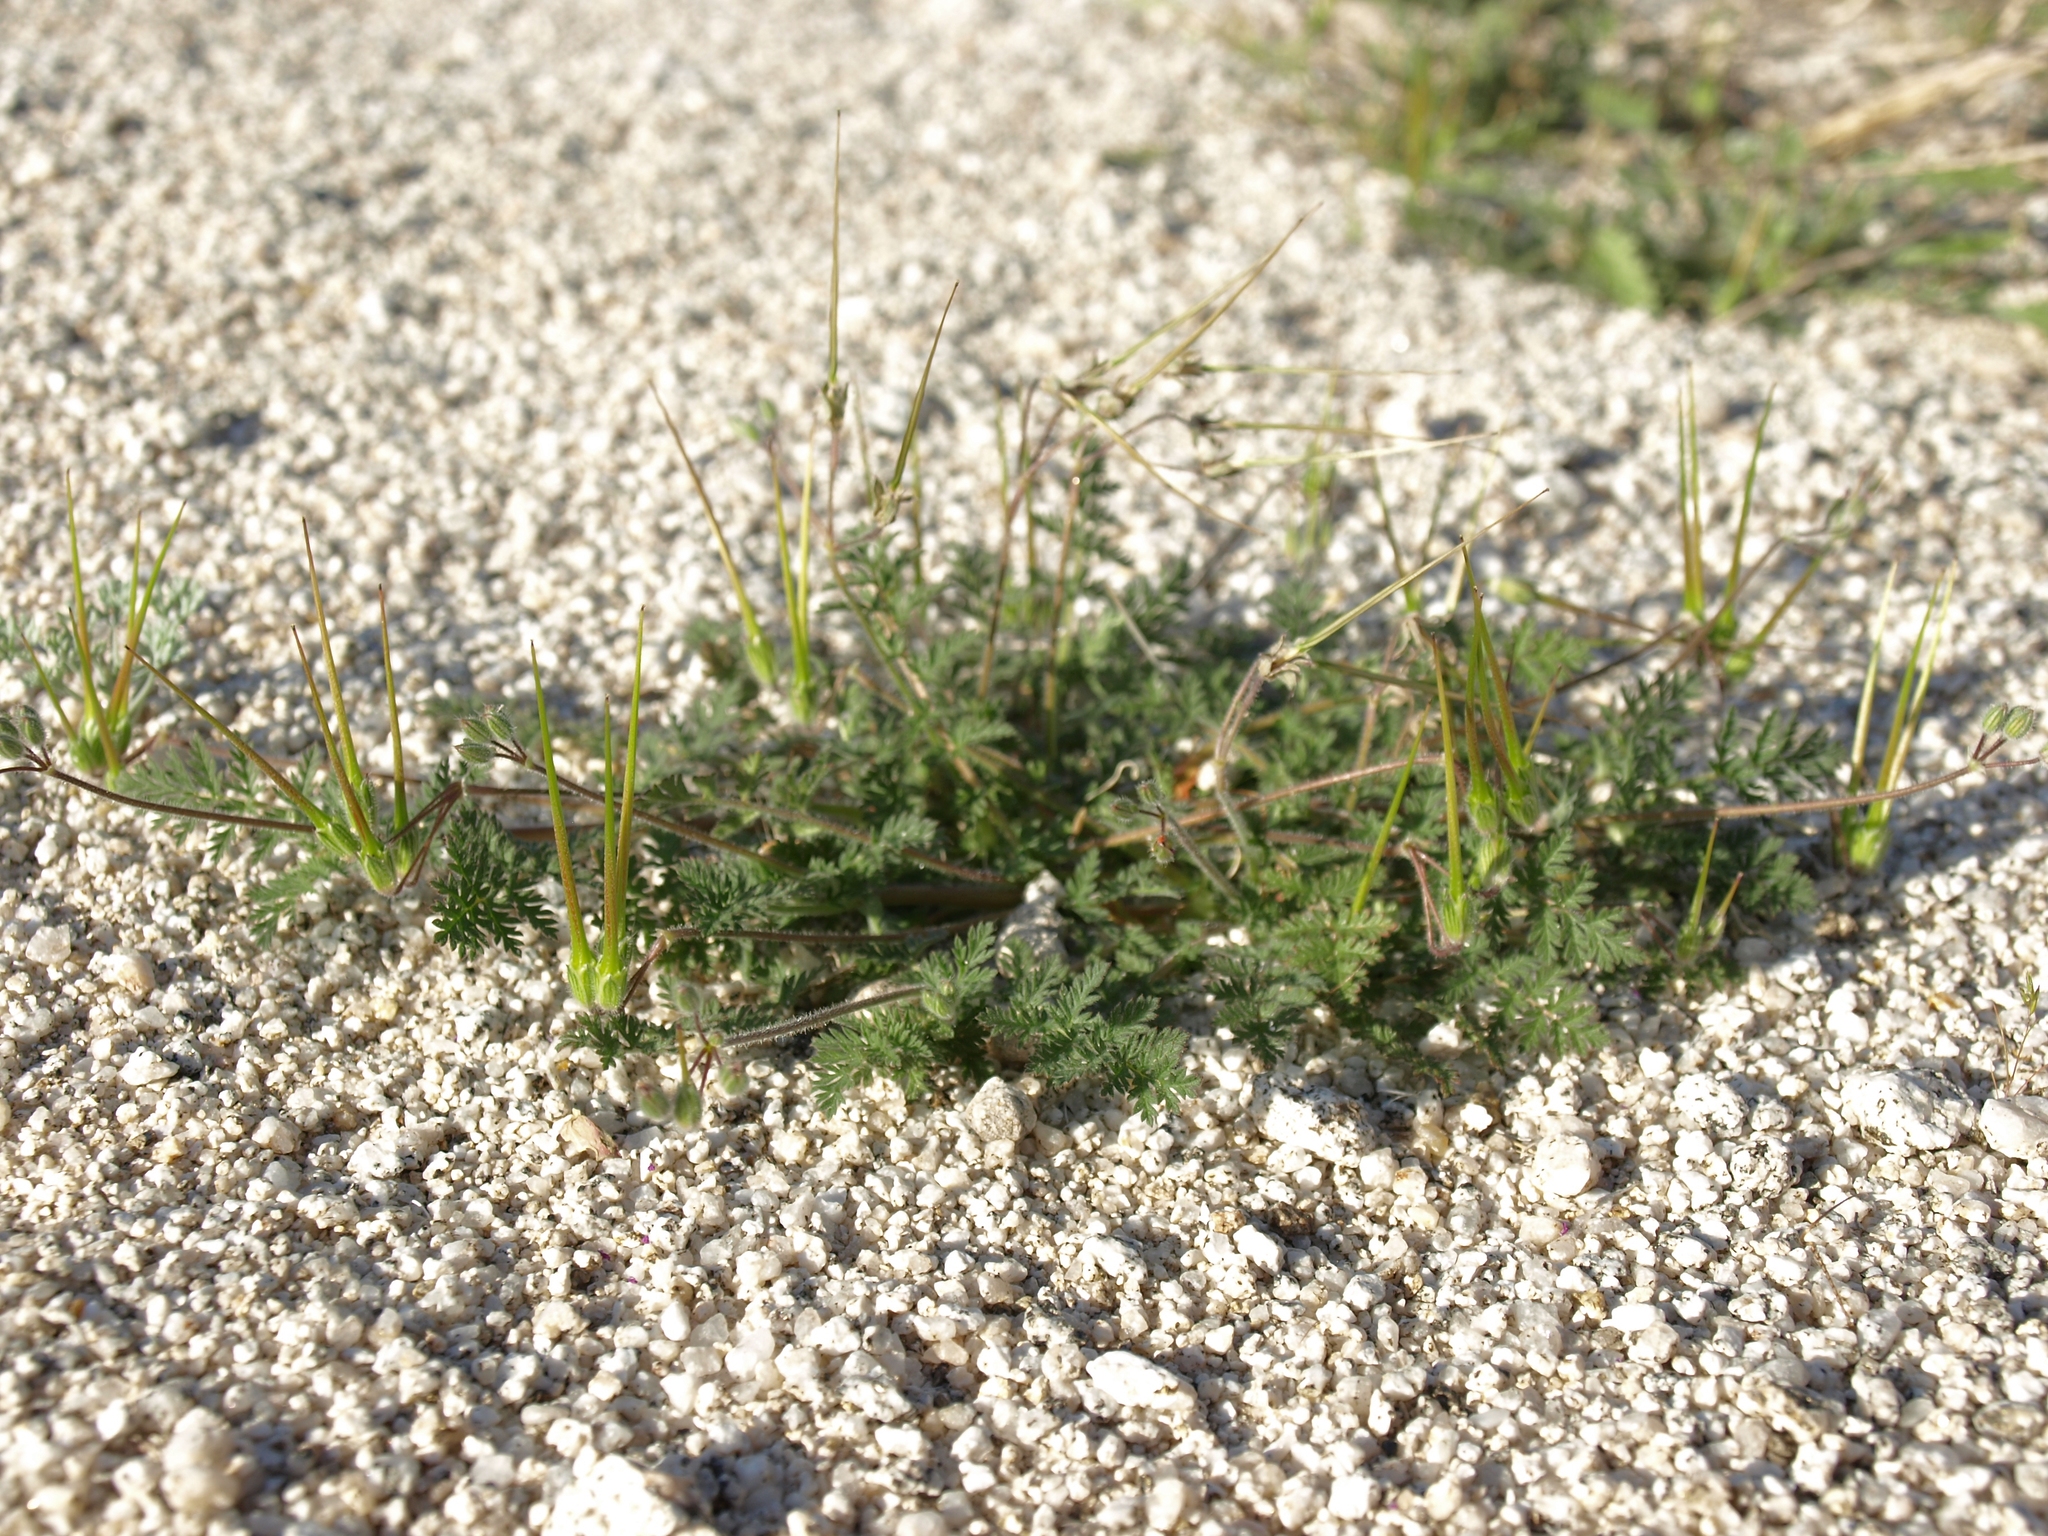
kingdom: Plantae
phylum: Tracheophyta
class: Magnoliopsida
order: Geraniales
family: Geraniaceae
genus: Erodium
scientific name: Erodium cicutarium
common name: Common stork's-bill
